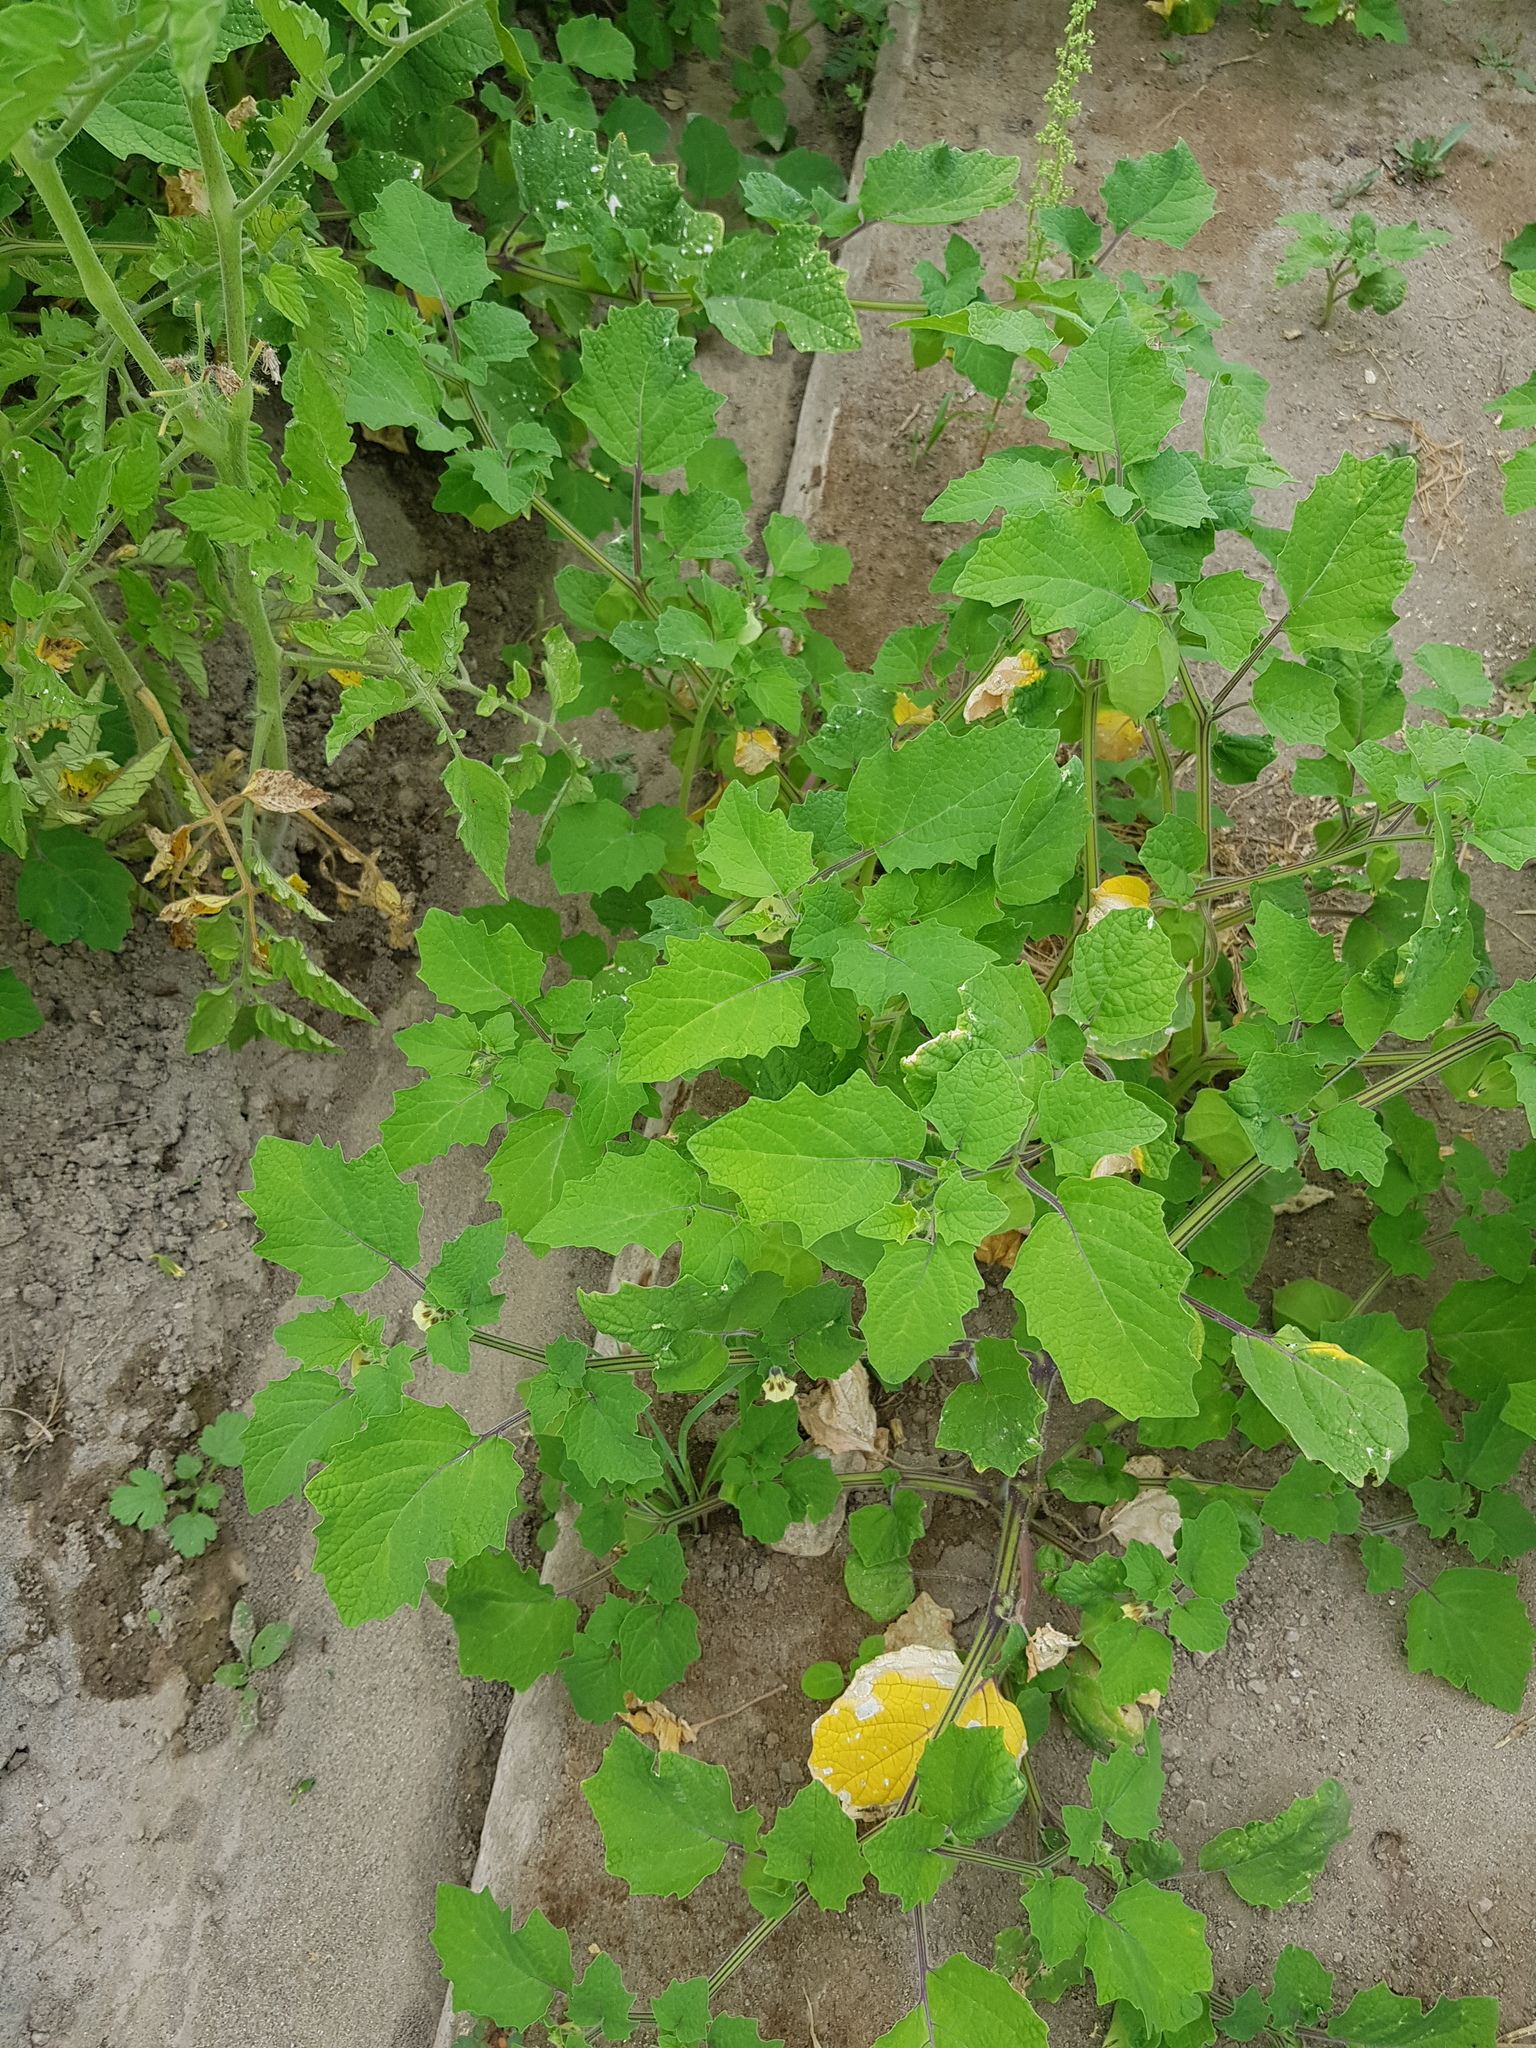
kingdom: Plantae
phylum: Tracheophyta
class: Magnoliopsida
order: Solanales
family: Solanaceae
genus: Solanum
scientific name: Solanum lycopersicum
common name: Garden tomato
